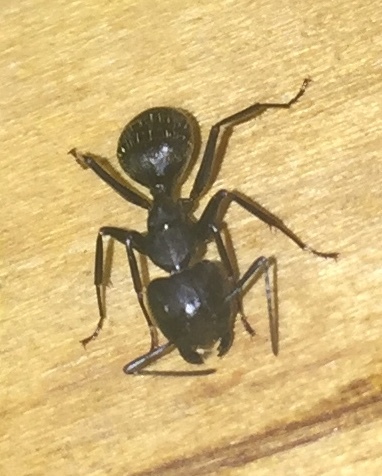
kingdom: Animalia
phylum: Arthropoda
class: Insecta
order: Hymenoptera
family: Formicidae
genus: Camponotus
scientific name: Camponotus pennsylvanicus
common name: Black carpenter ant
